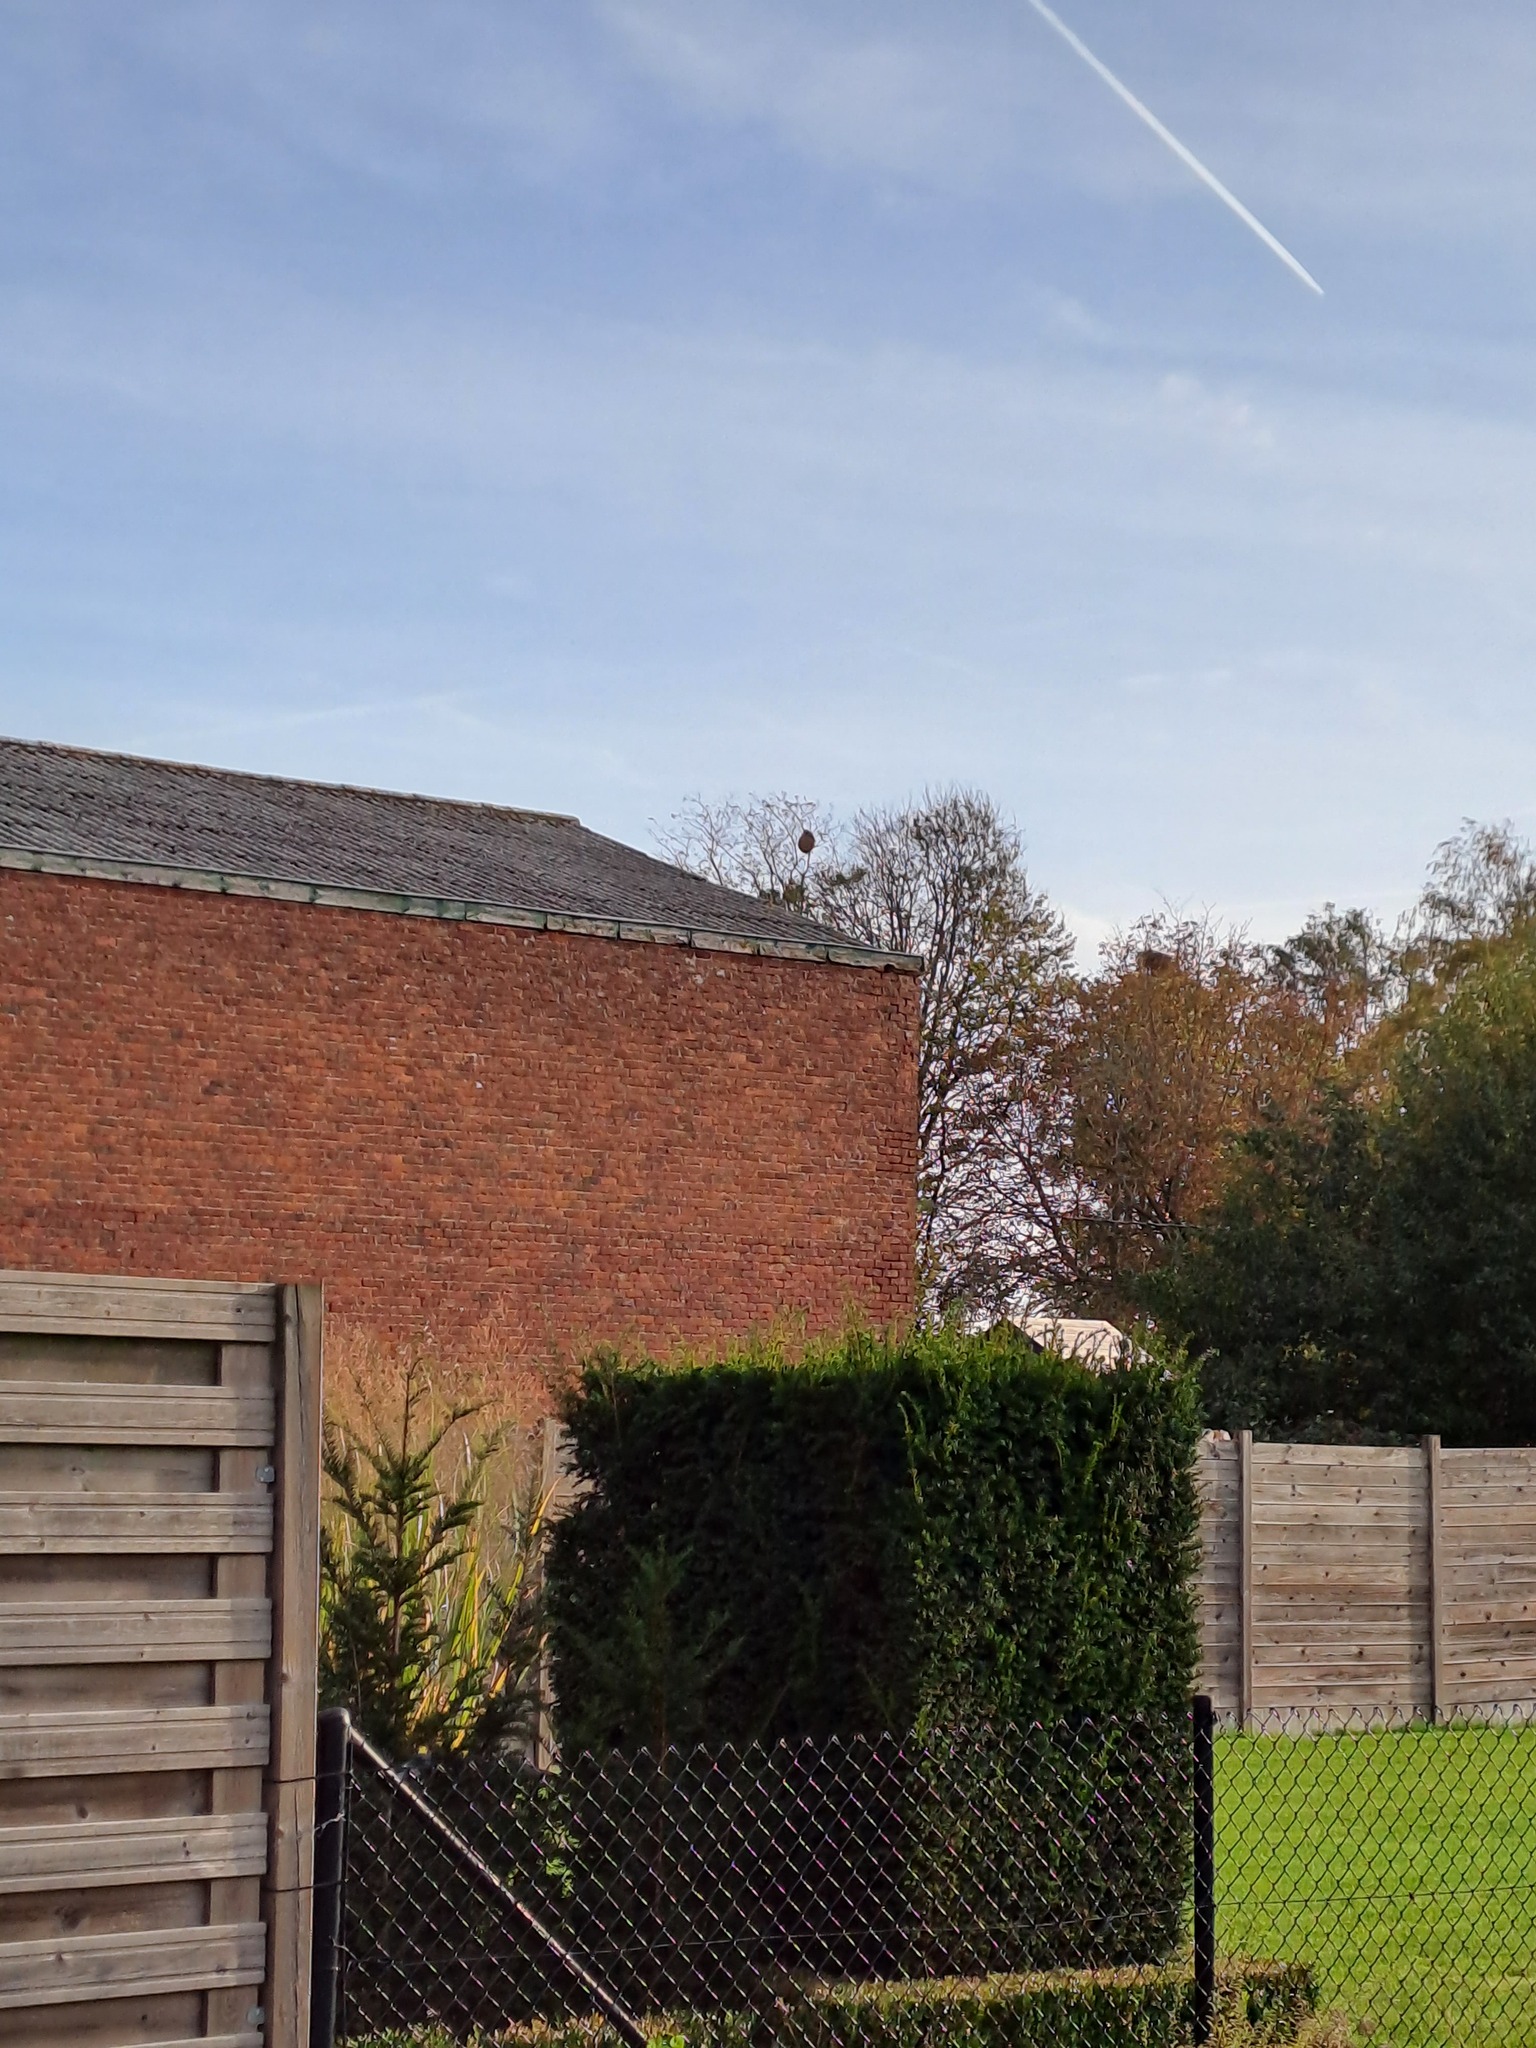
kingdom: Animalia
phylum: Arthropoda
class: Insecta
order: Hymenoptera
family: Vespidae
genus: Vespa
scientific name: Vespa velutina
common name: Asian hornet
